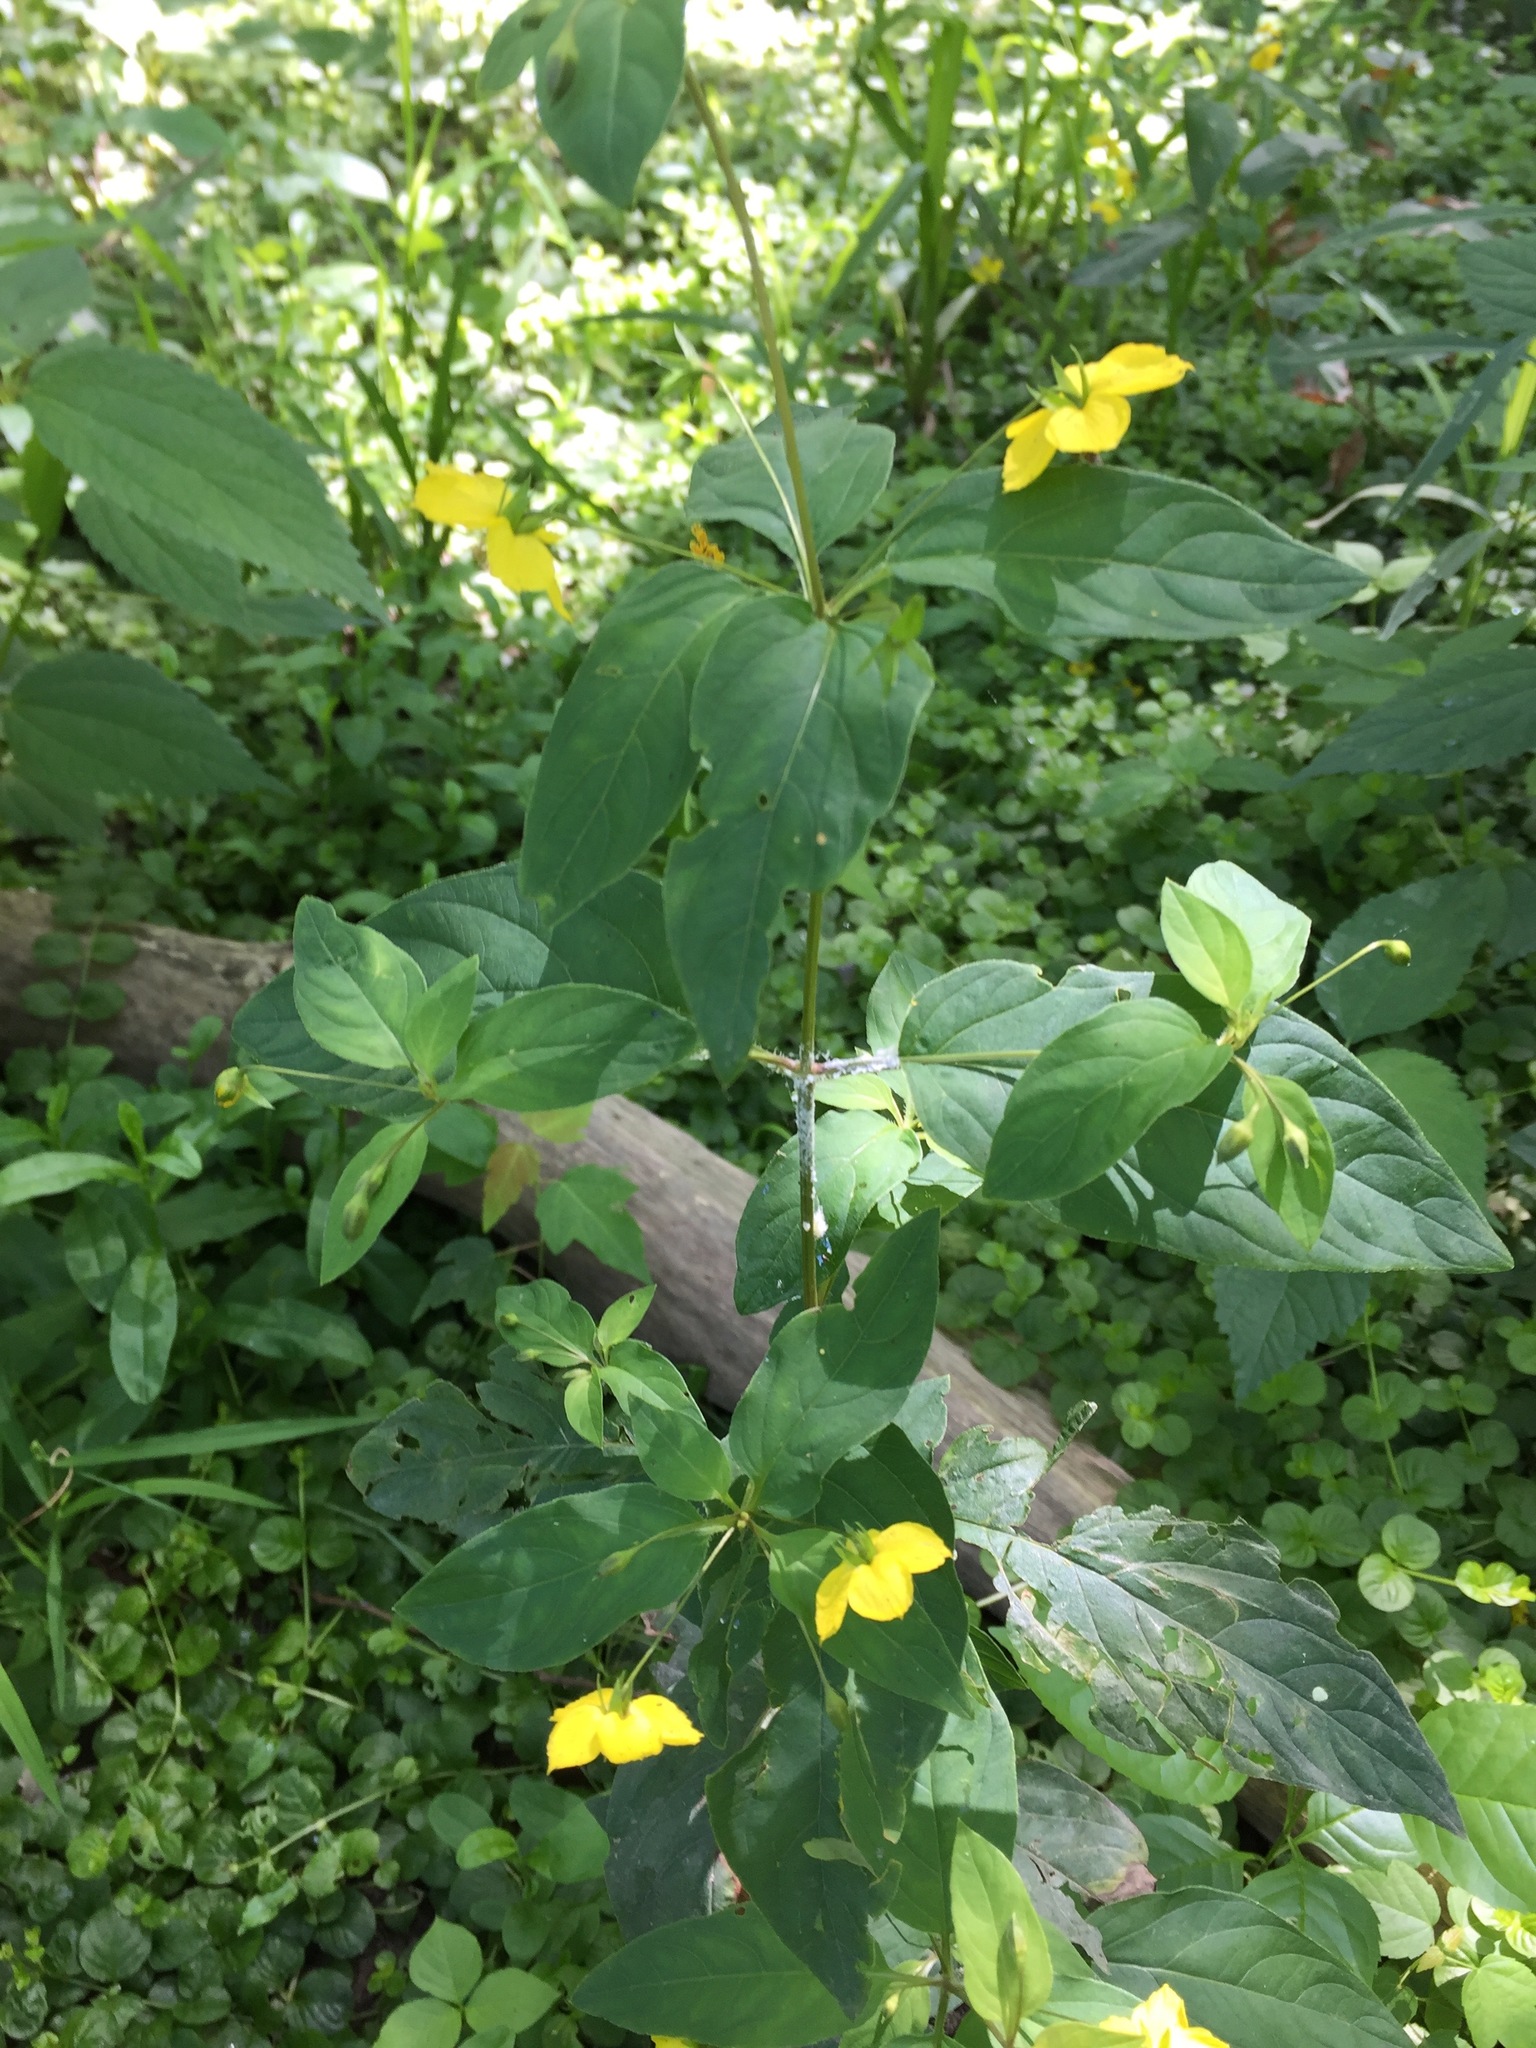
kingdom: Plantae
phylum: Tracheophyta
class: Magnoliopsida
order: Ericales
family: Primulaceae
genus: Lysimachia
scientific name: Lysimachia ciliata
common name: Fringed loosestrife
